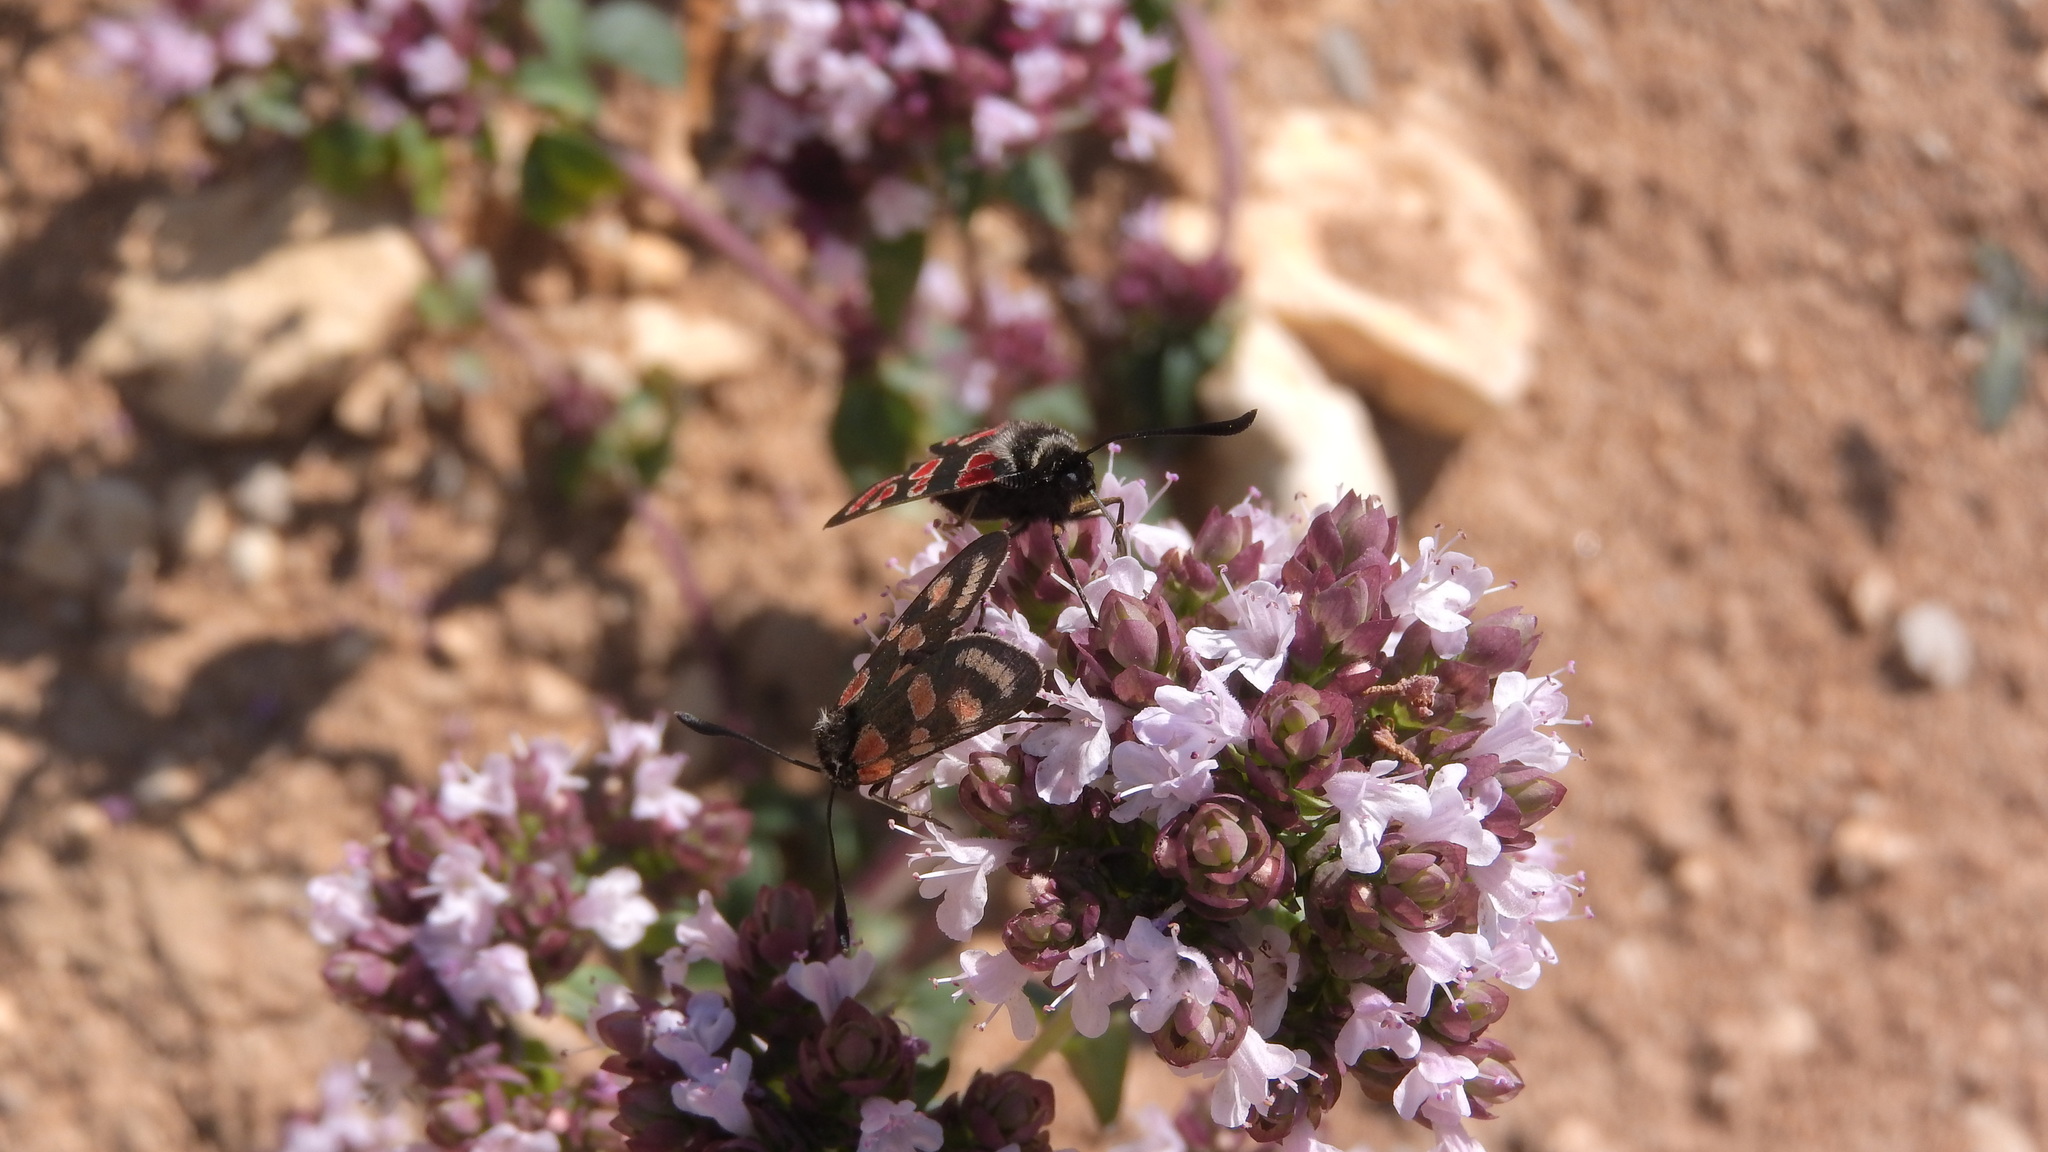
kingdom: Animalia
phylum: Arthropoda
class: Insecta
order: Lepidoptera
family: Zygaenidae
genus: Zygaena
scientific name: Zygaena carniolica
